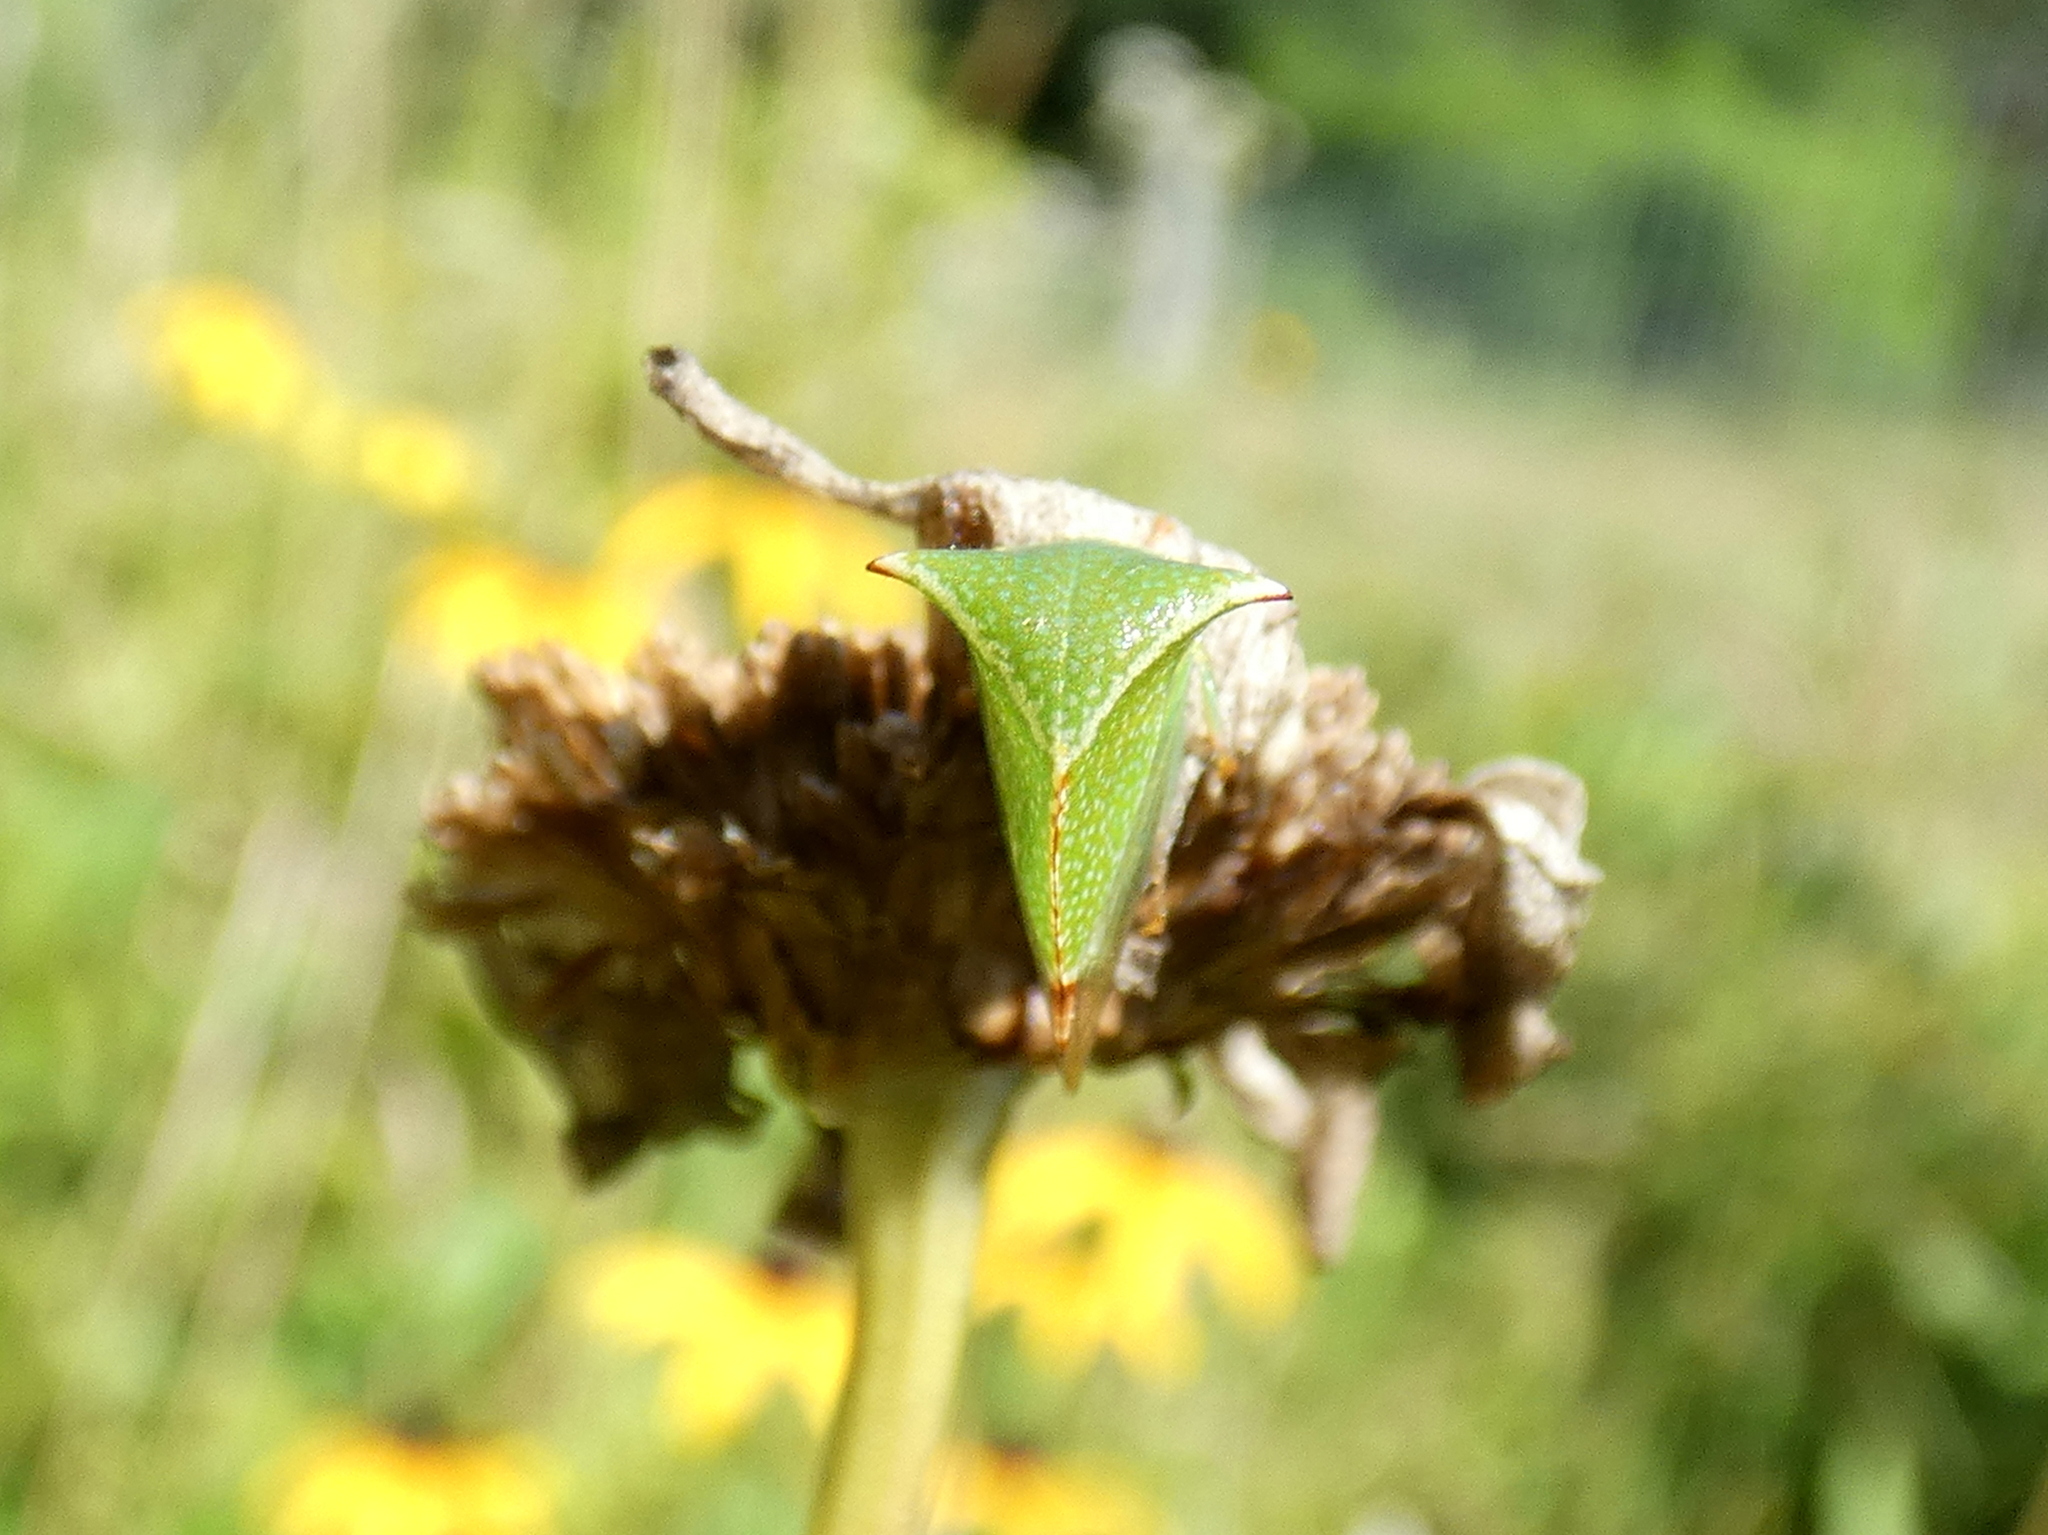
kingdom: Animalia
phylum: Arthropoda
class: Insecta
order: Hemiptera
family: Membracidae
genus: Stictocephala
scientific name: Stictocephala bisonia
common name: American buffalo treehopper
